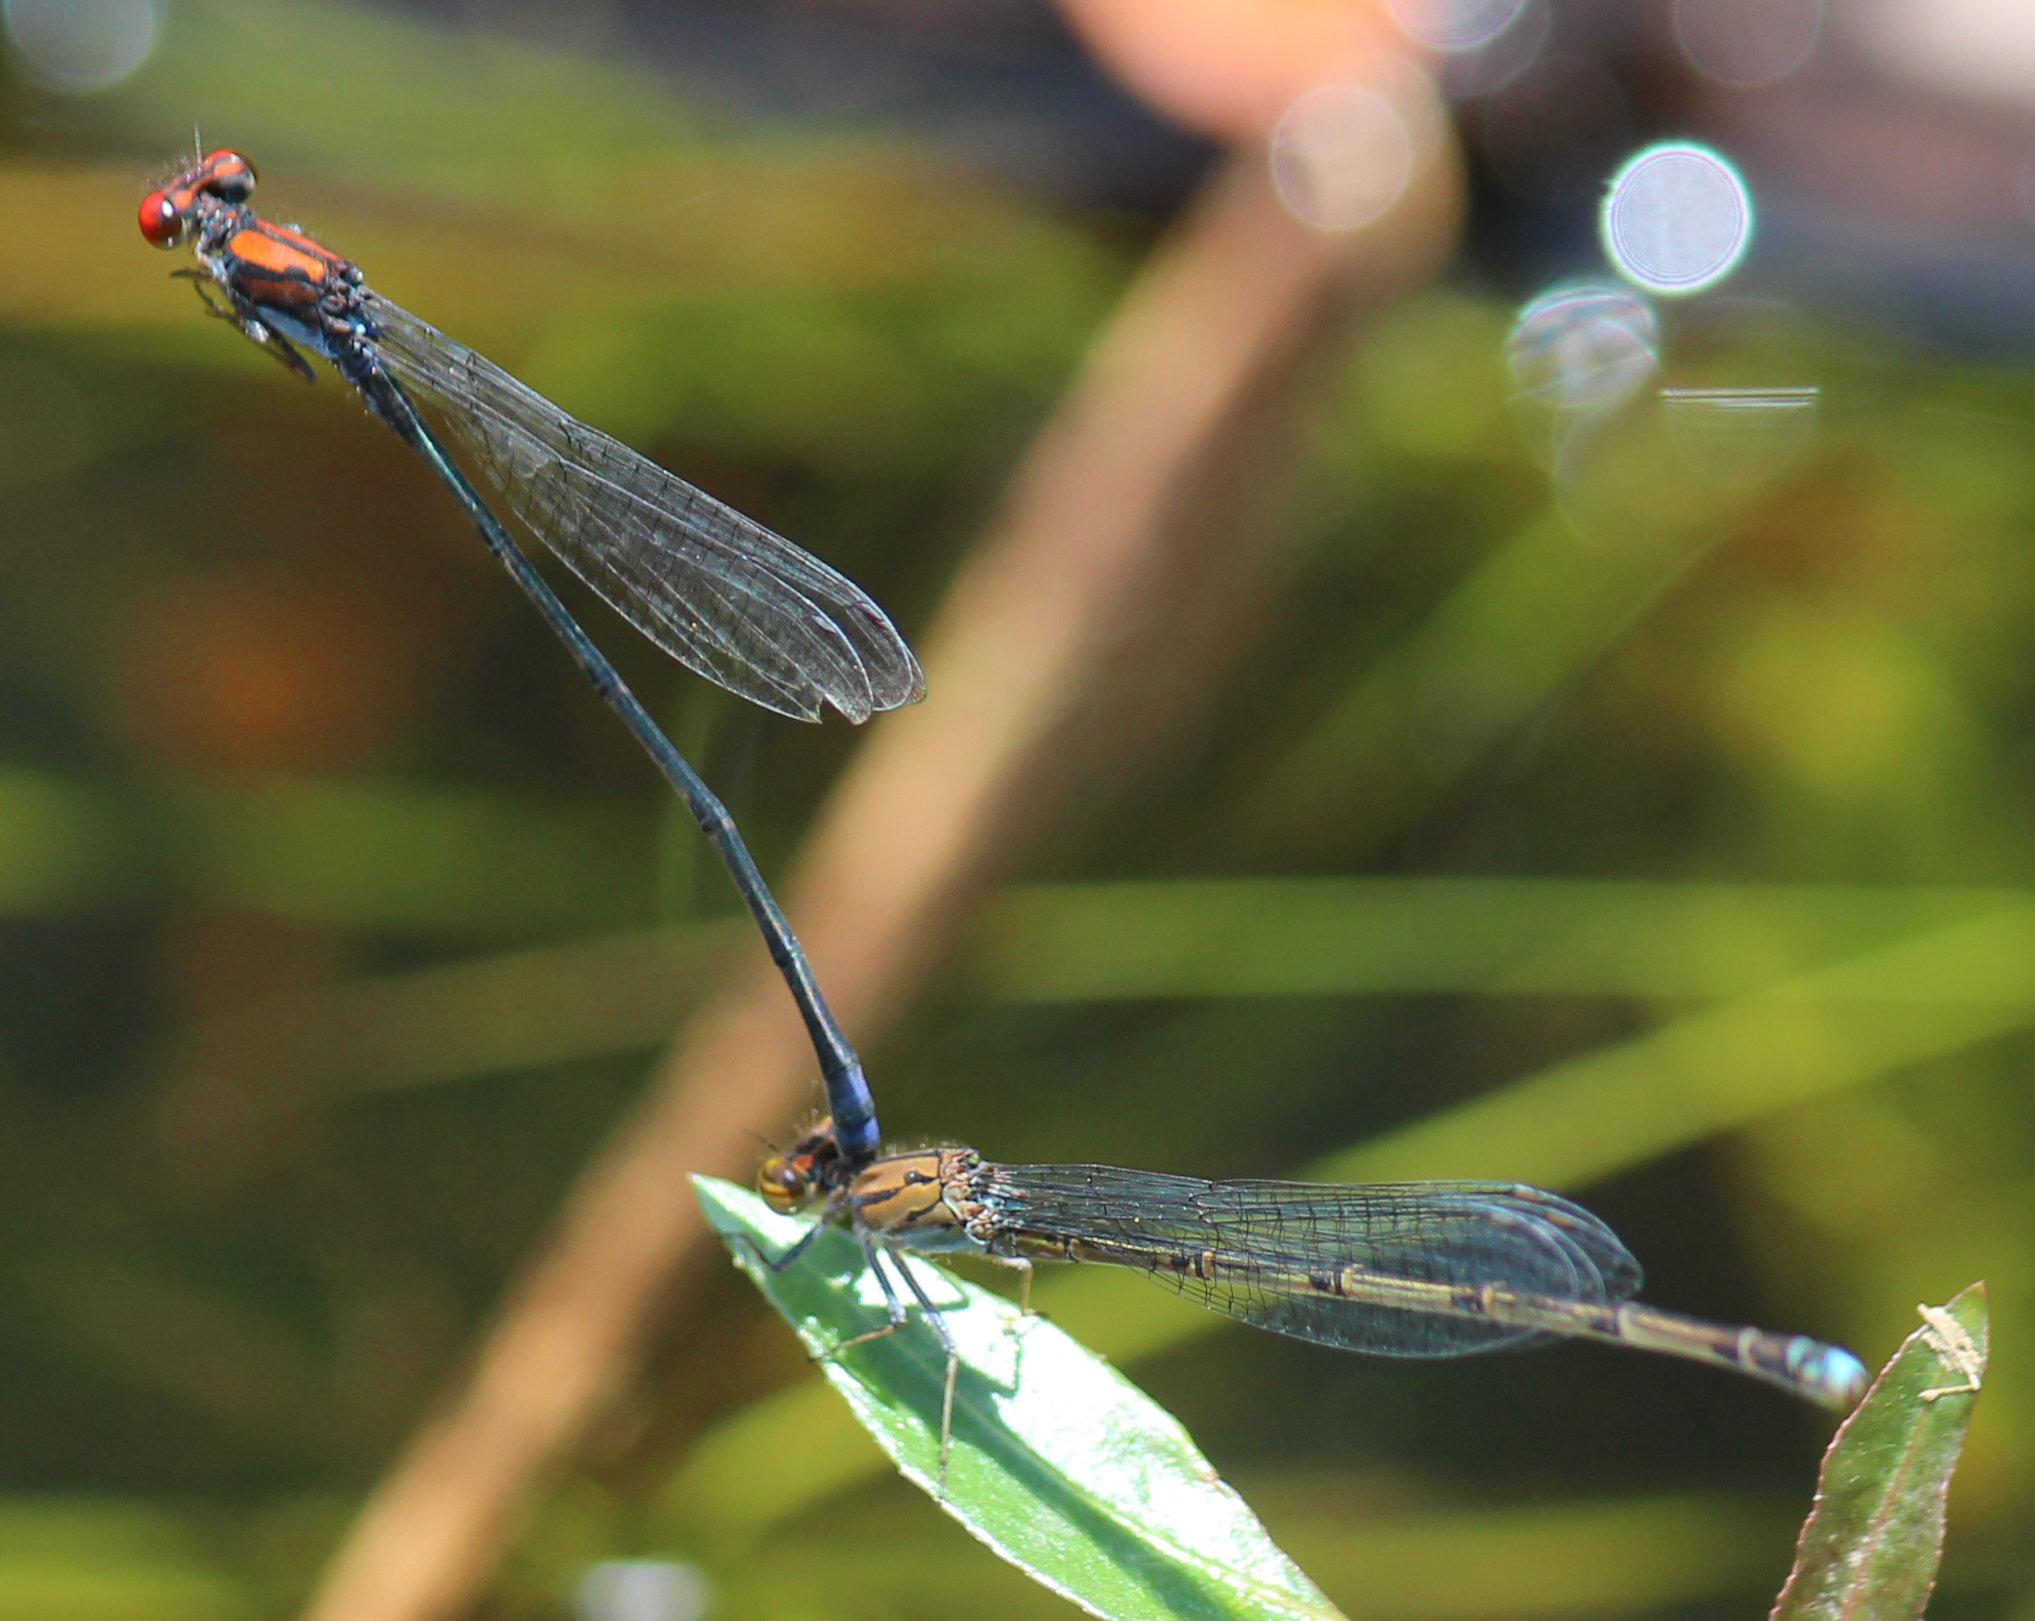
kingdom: Animalia
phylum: Arthropoda
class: Insecta
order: Odonata
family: Coenagrionidae
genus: Pseudagrion
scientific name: Pseudagrion massaicum
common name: Masai sprite
